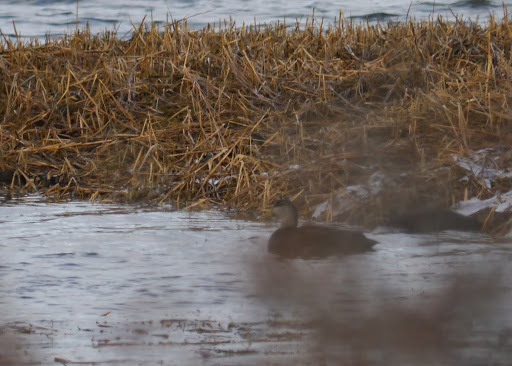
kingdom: Animalia
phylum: Chordata
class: Aves
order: Anseriformes
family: Anatidae
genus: Anas
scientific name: Anas rubripes
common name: American black duck
